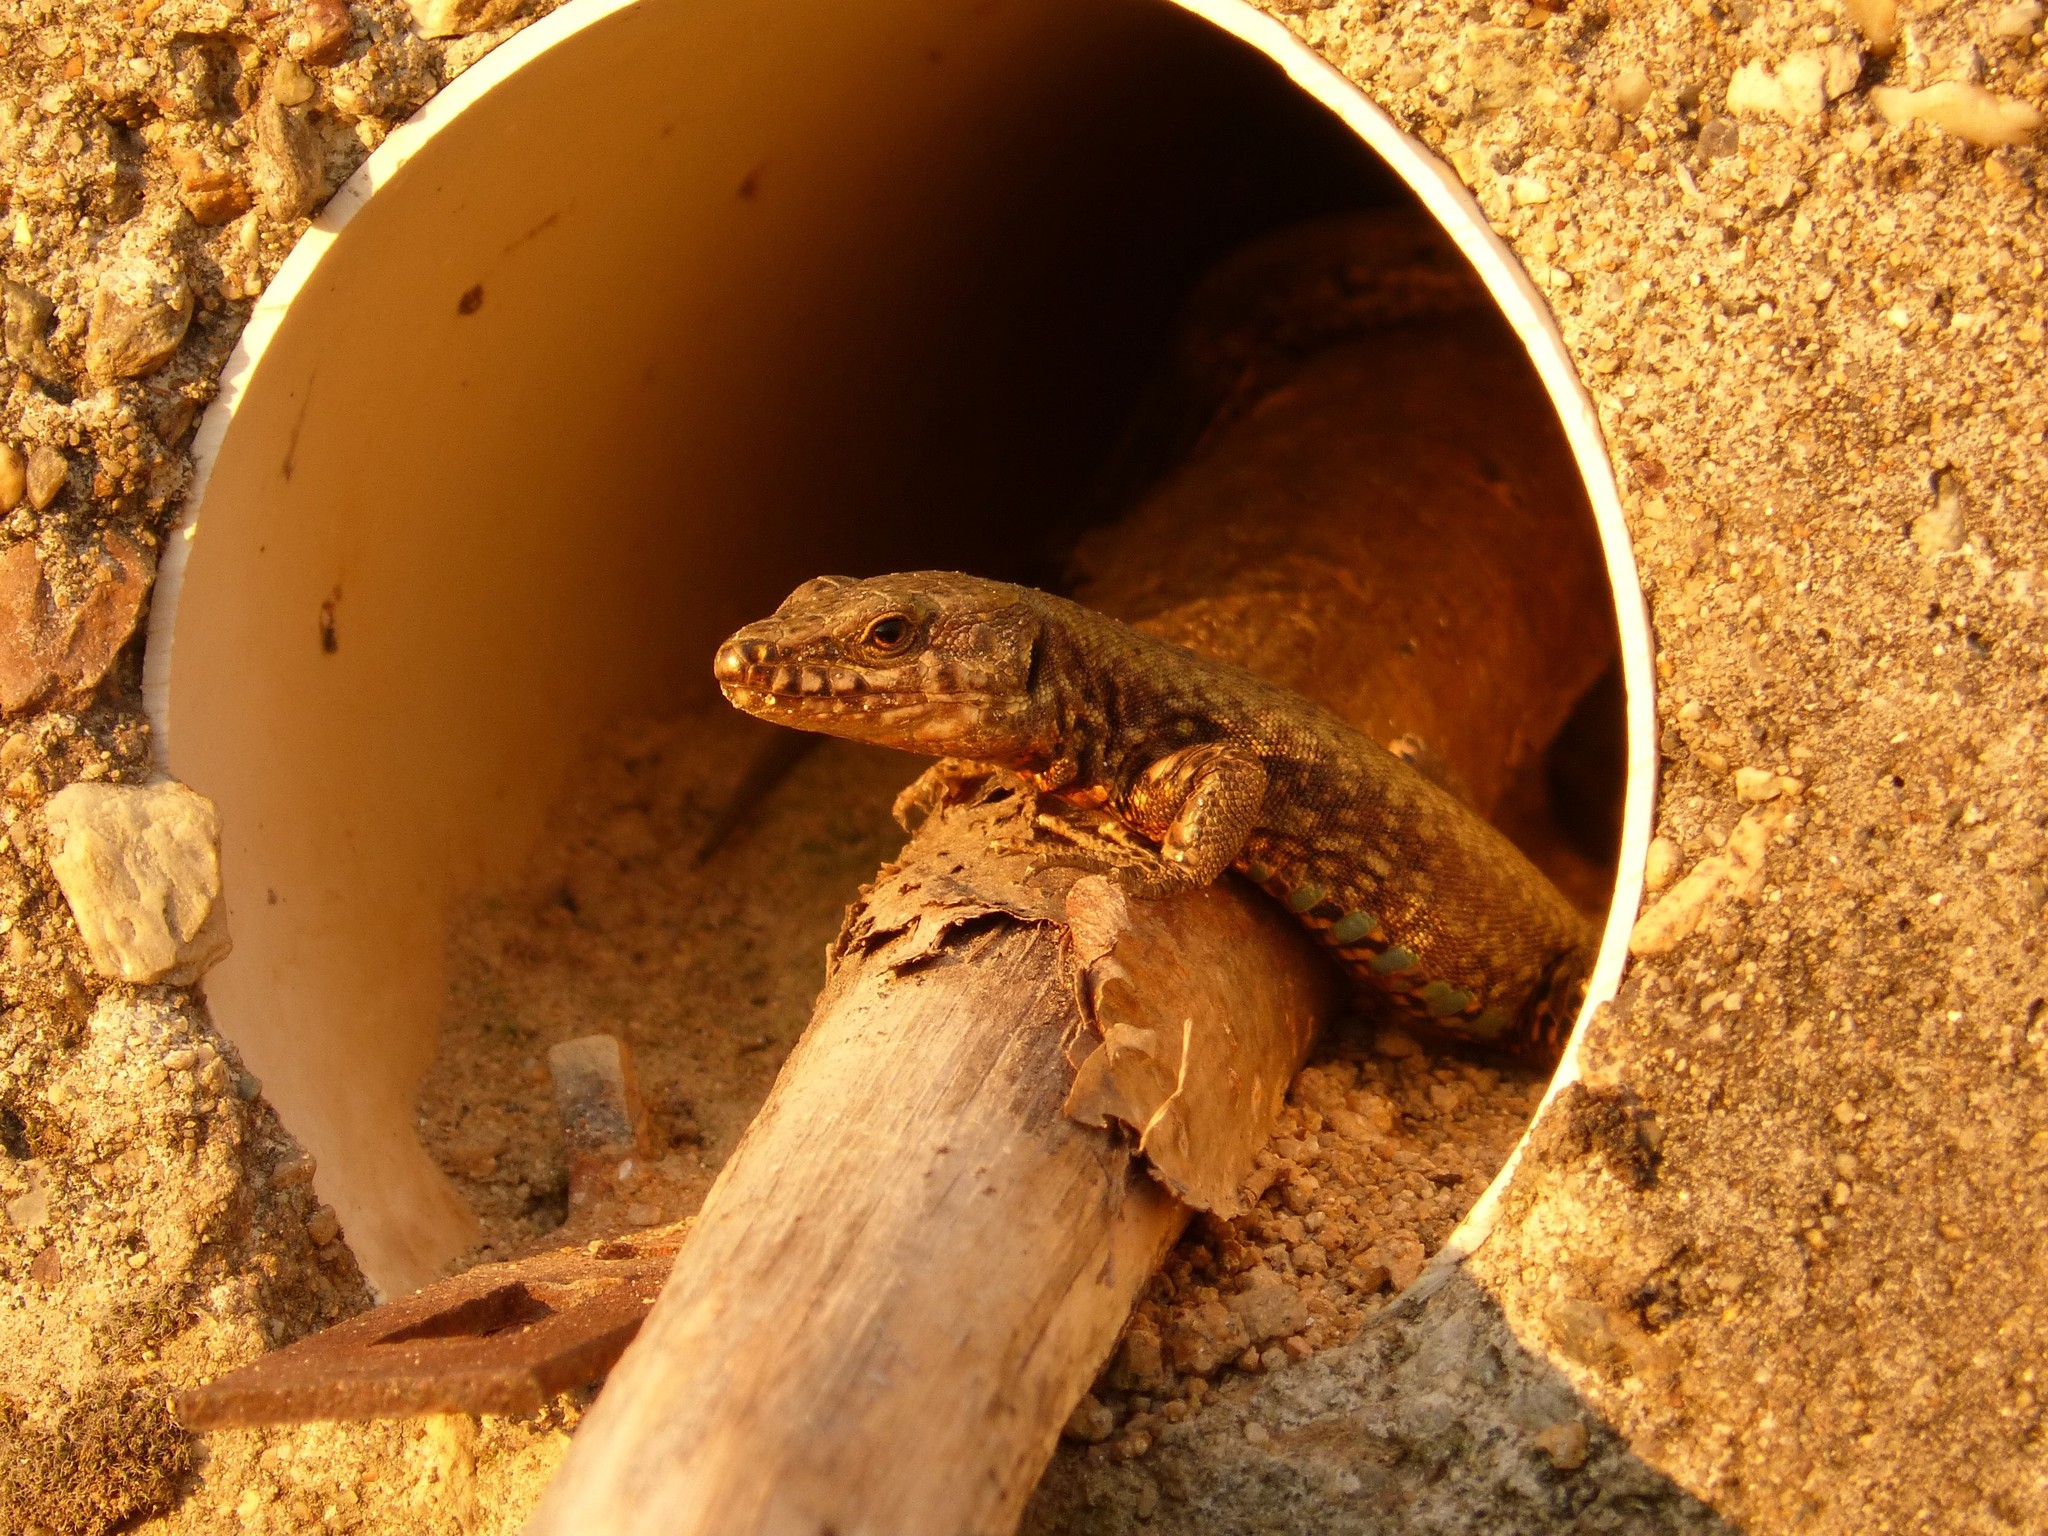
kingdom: Animalia
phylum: Chordata
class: Squamata
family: Lacertidae
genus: Podarcis
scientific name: Podarcis muralis
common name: Common wall lizard
